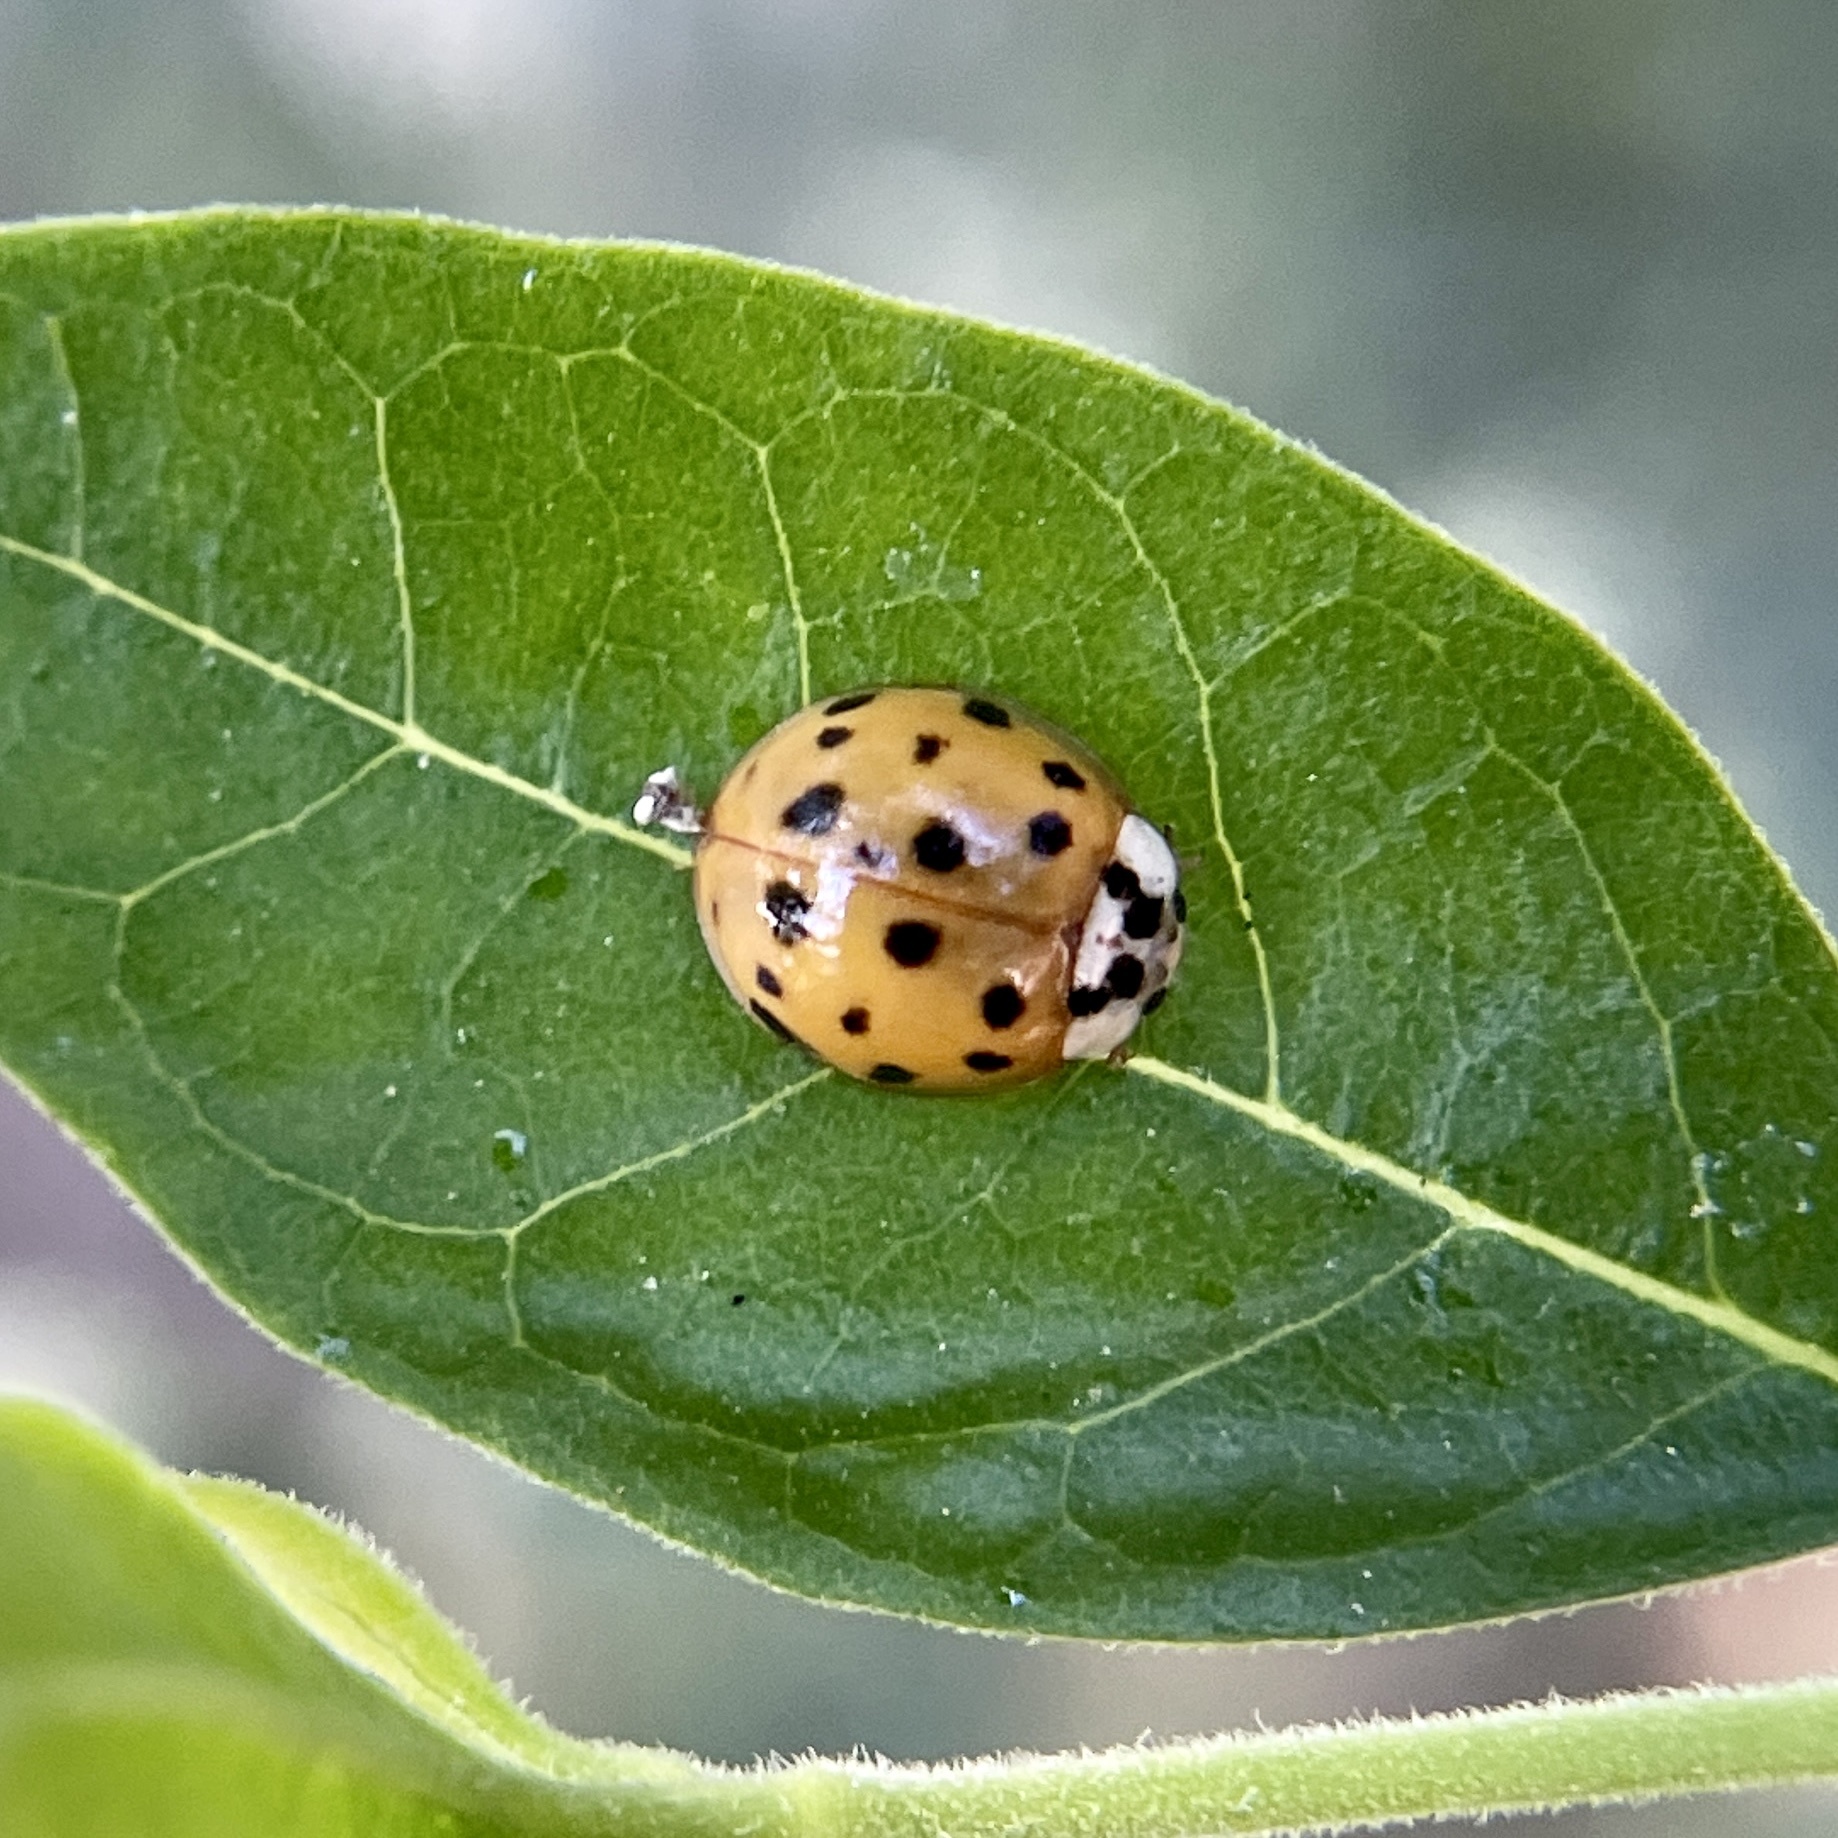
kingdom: Animalia
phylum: Arthropoda
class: Insecta
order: Coleoptera
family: Coccinellidae
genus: Harmonia
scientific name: Harmonia axyridis
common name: Harlequin ladybird
